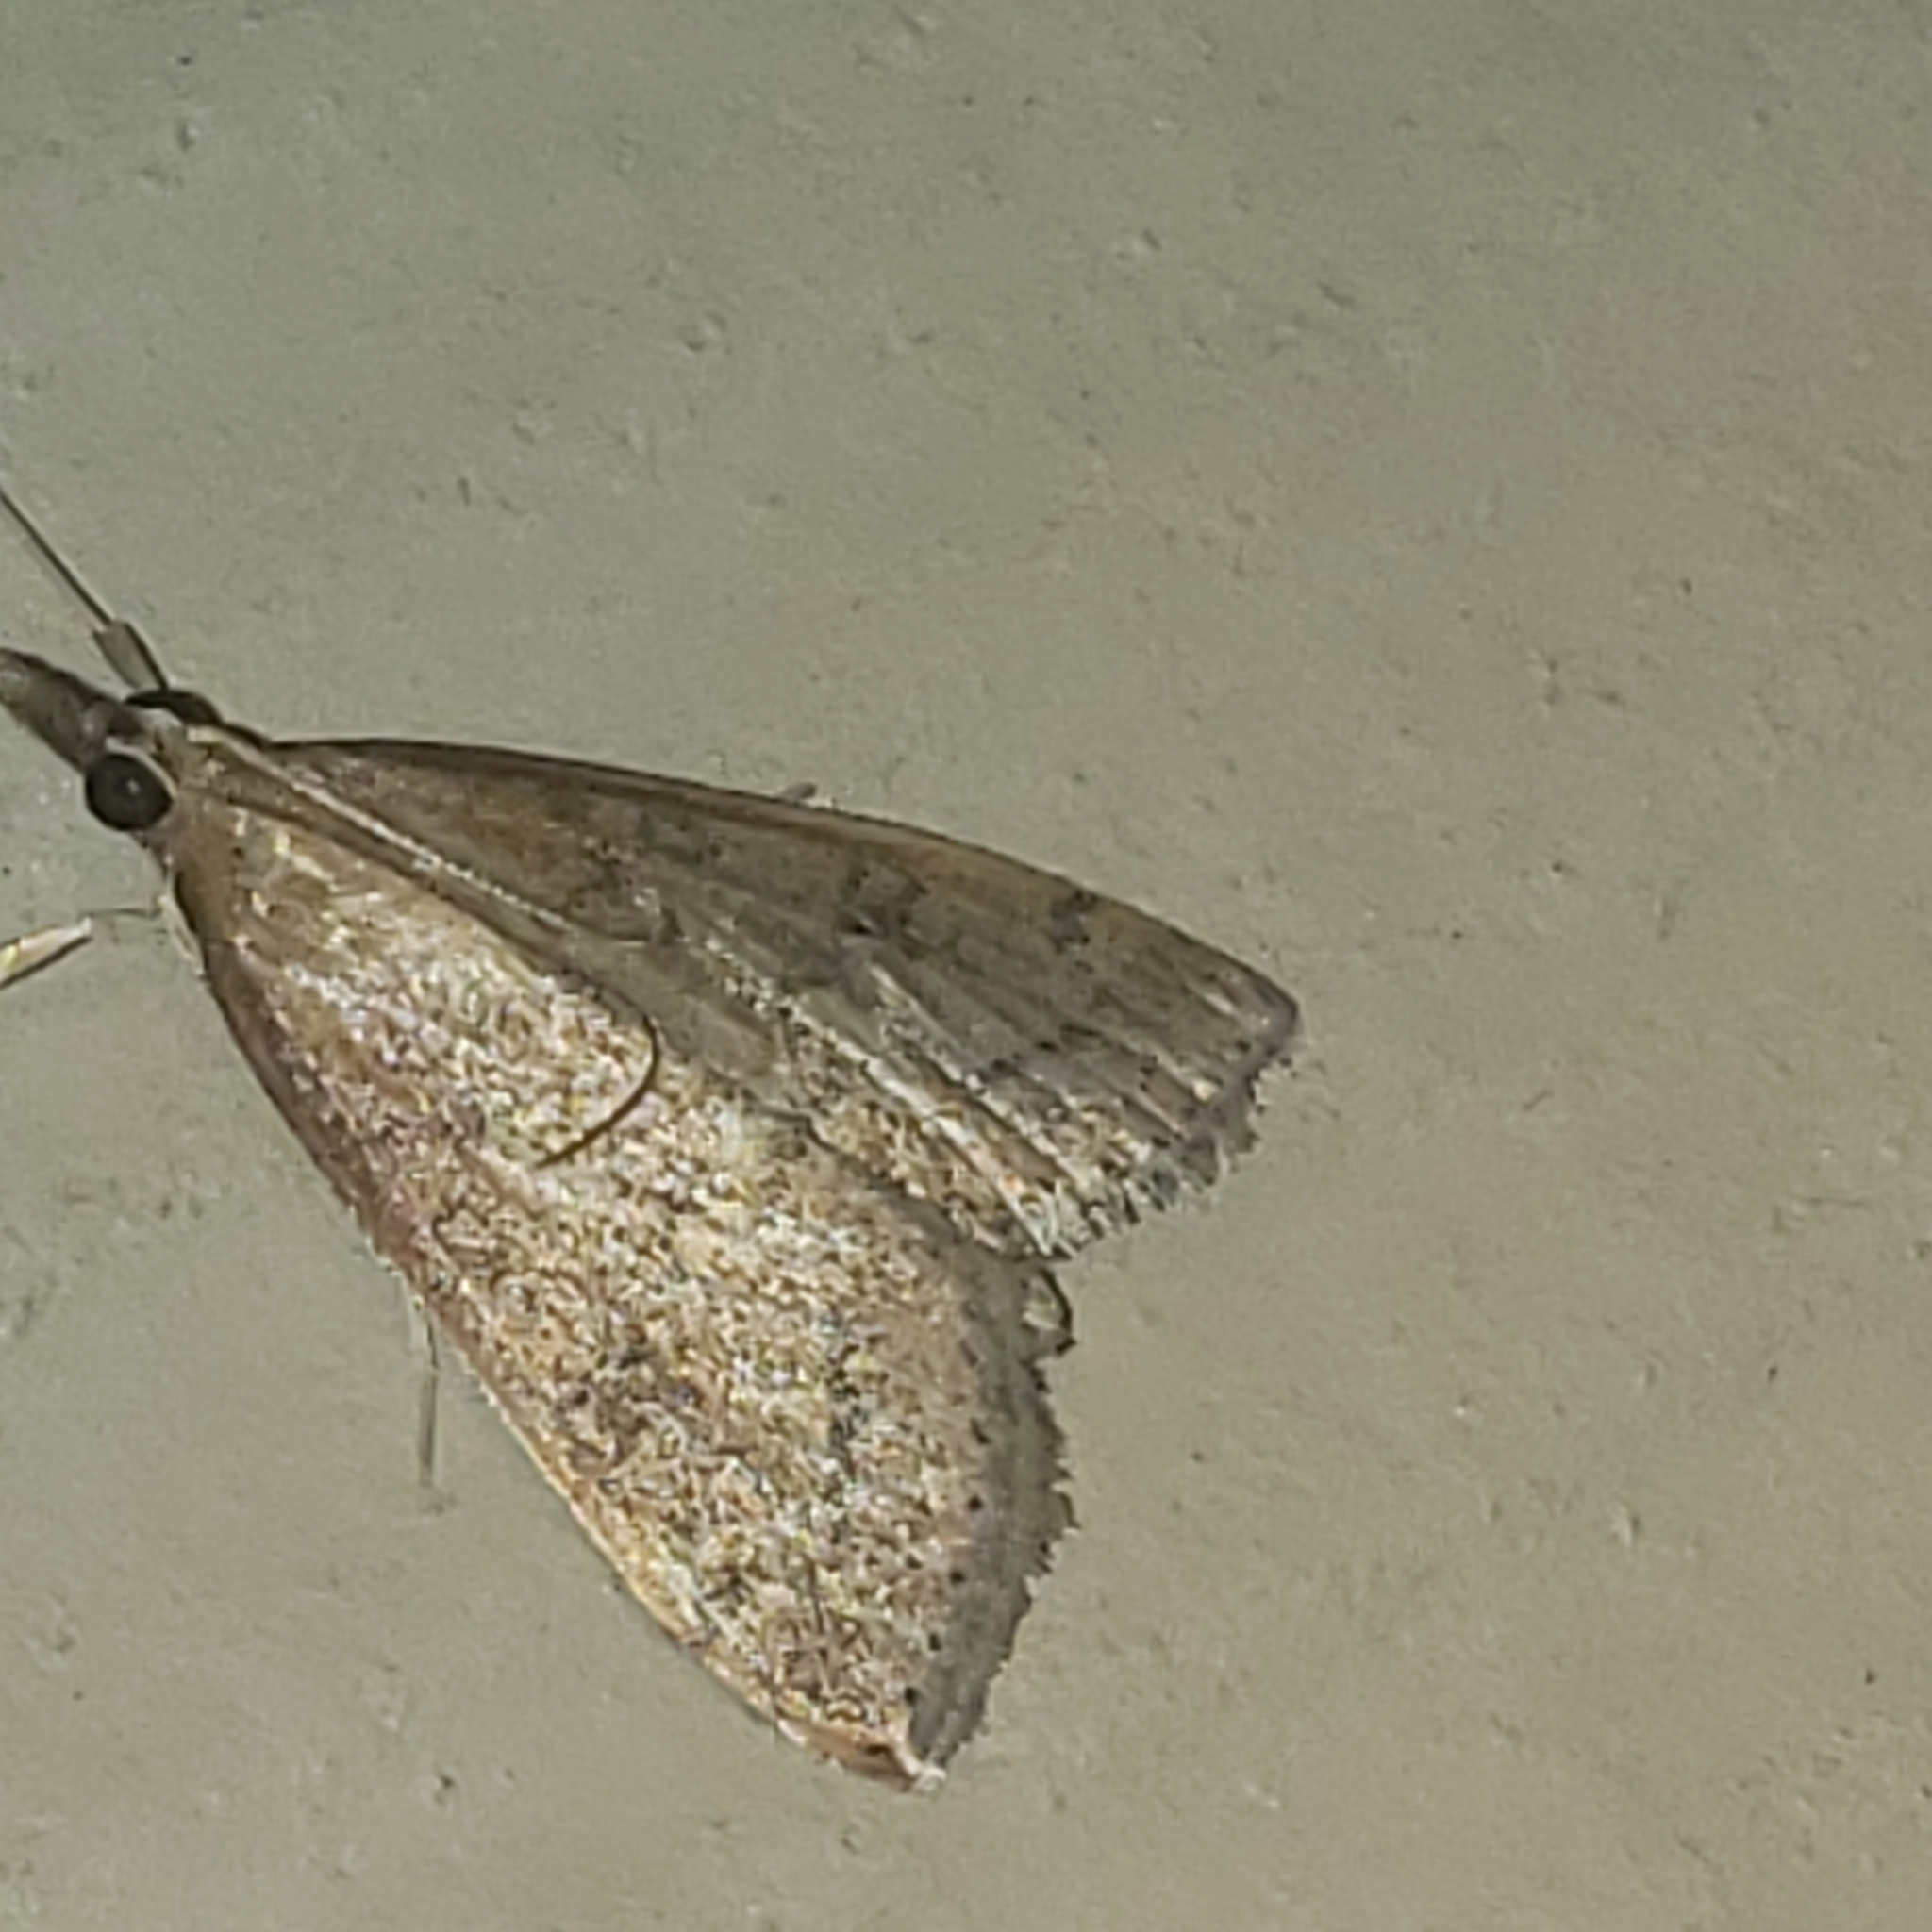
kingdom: Animalia
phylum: Arthropoda
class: Insecta
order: Lepidoptera
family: Crambidae
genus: Udea
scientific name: Udea rubigalis
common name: Celery leaftier moth
